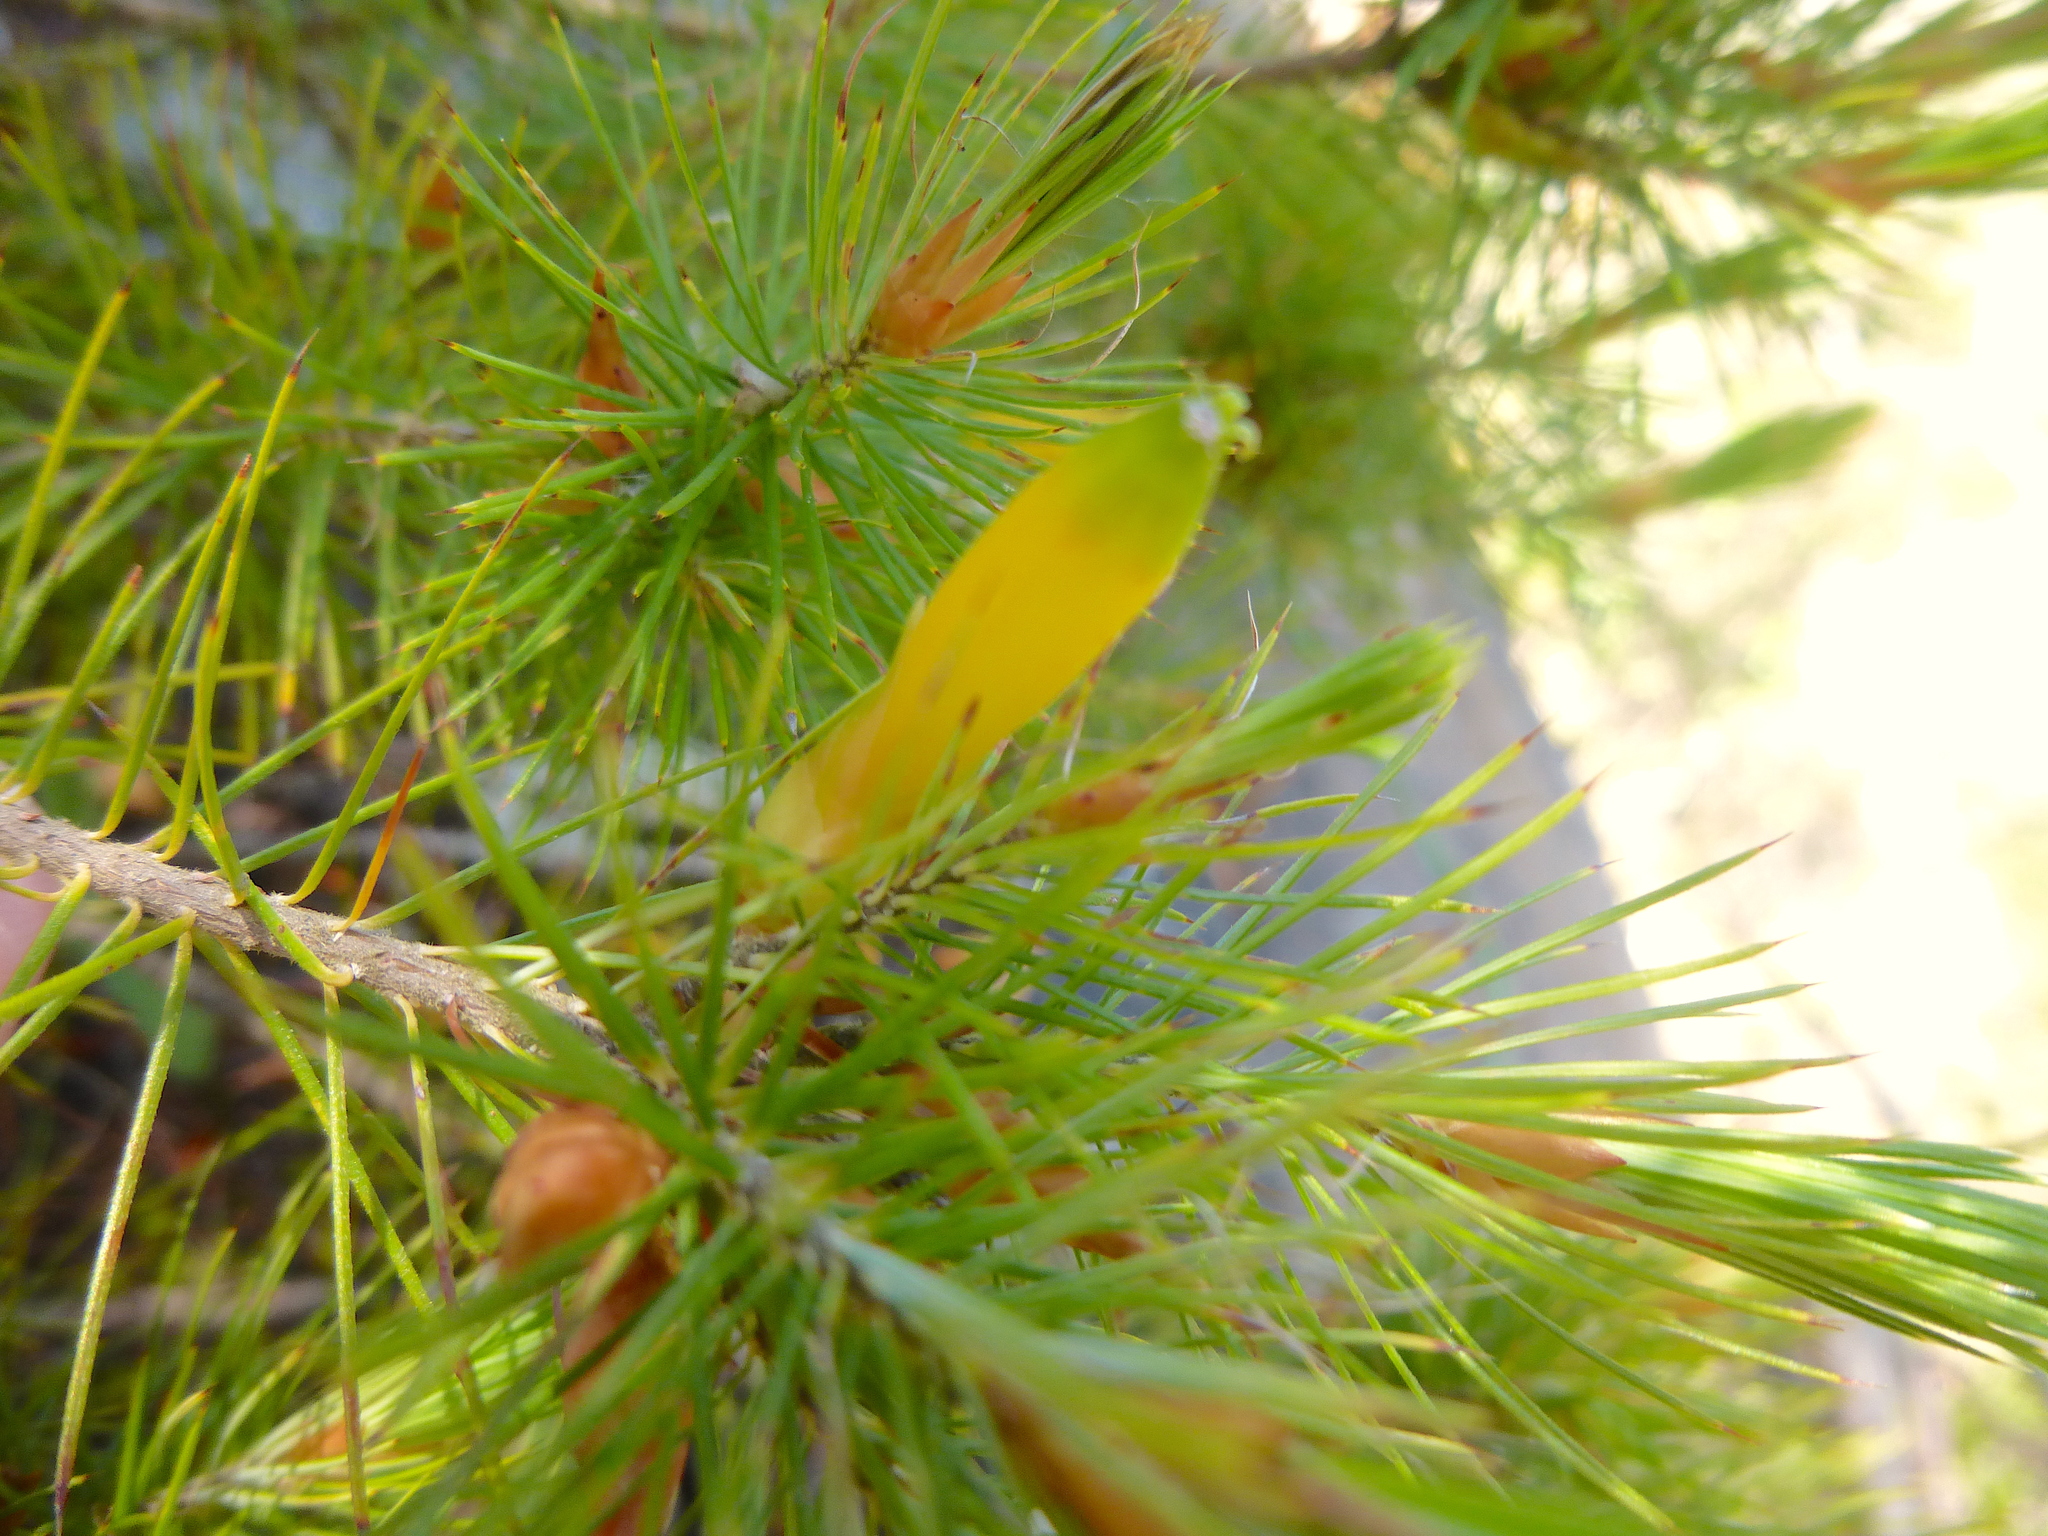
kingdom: Plantae
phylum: Tracheophyta
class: Magnoliopsida
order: Ericales
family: Ericaceae
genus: Stenanthera
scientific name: Stenanthera pinifolia
